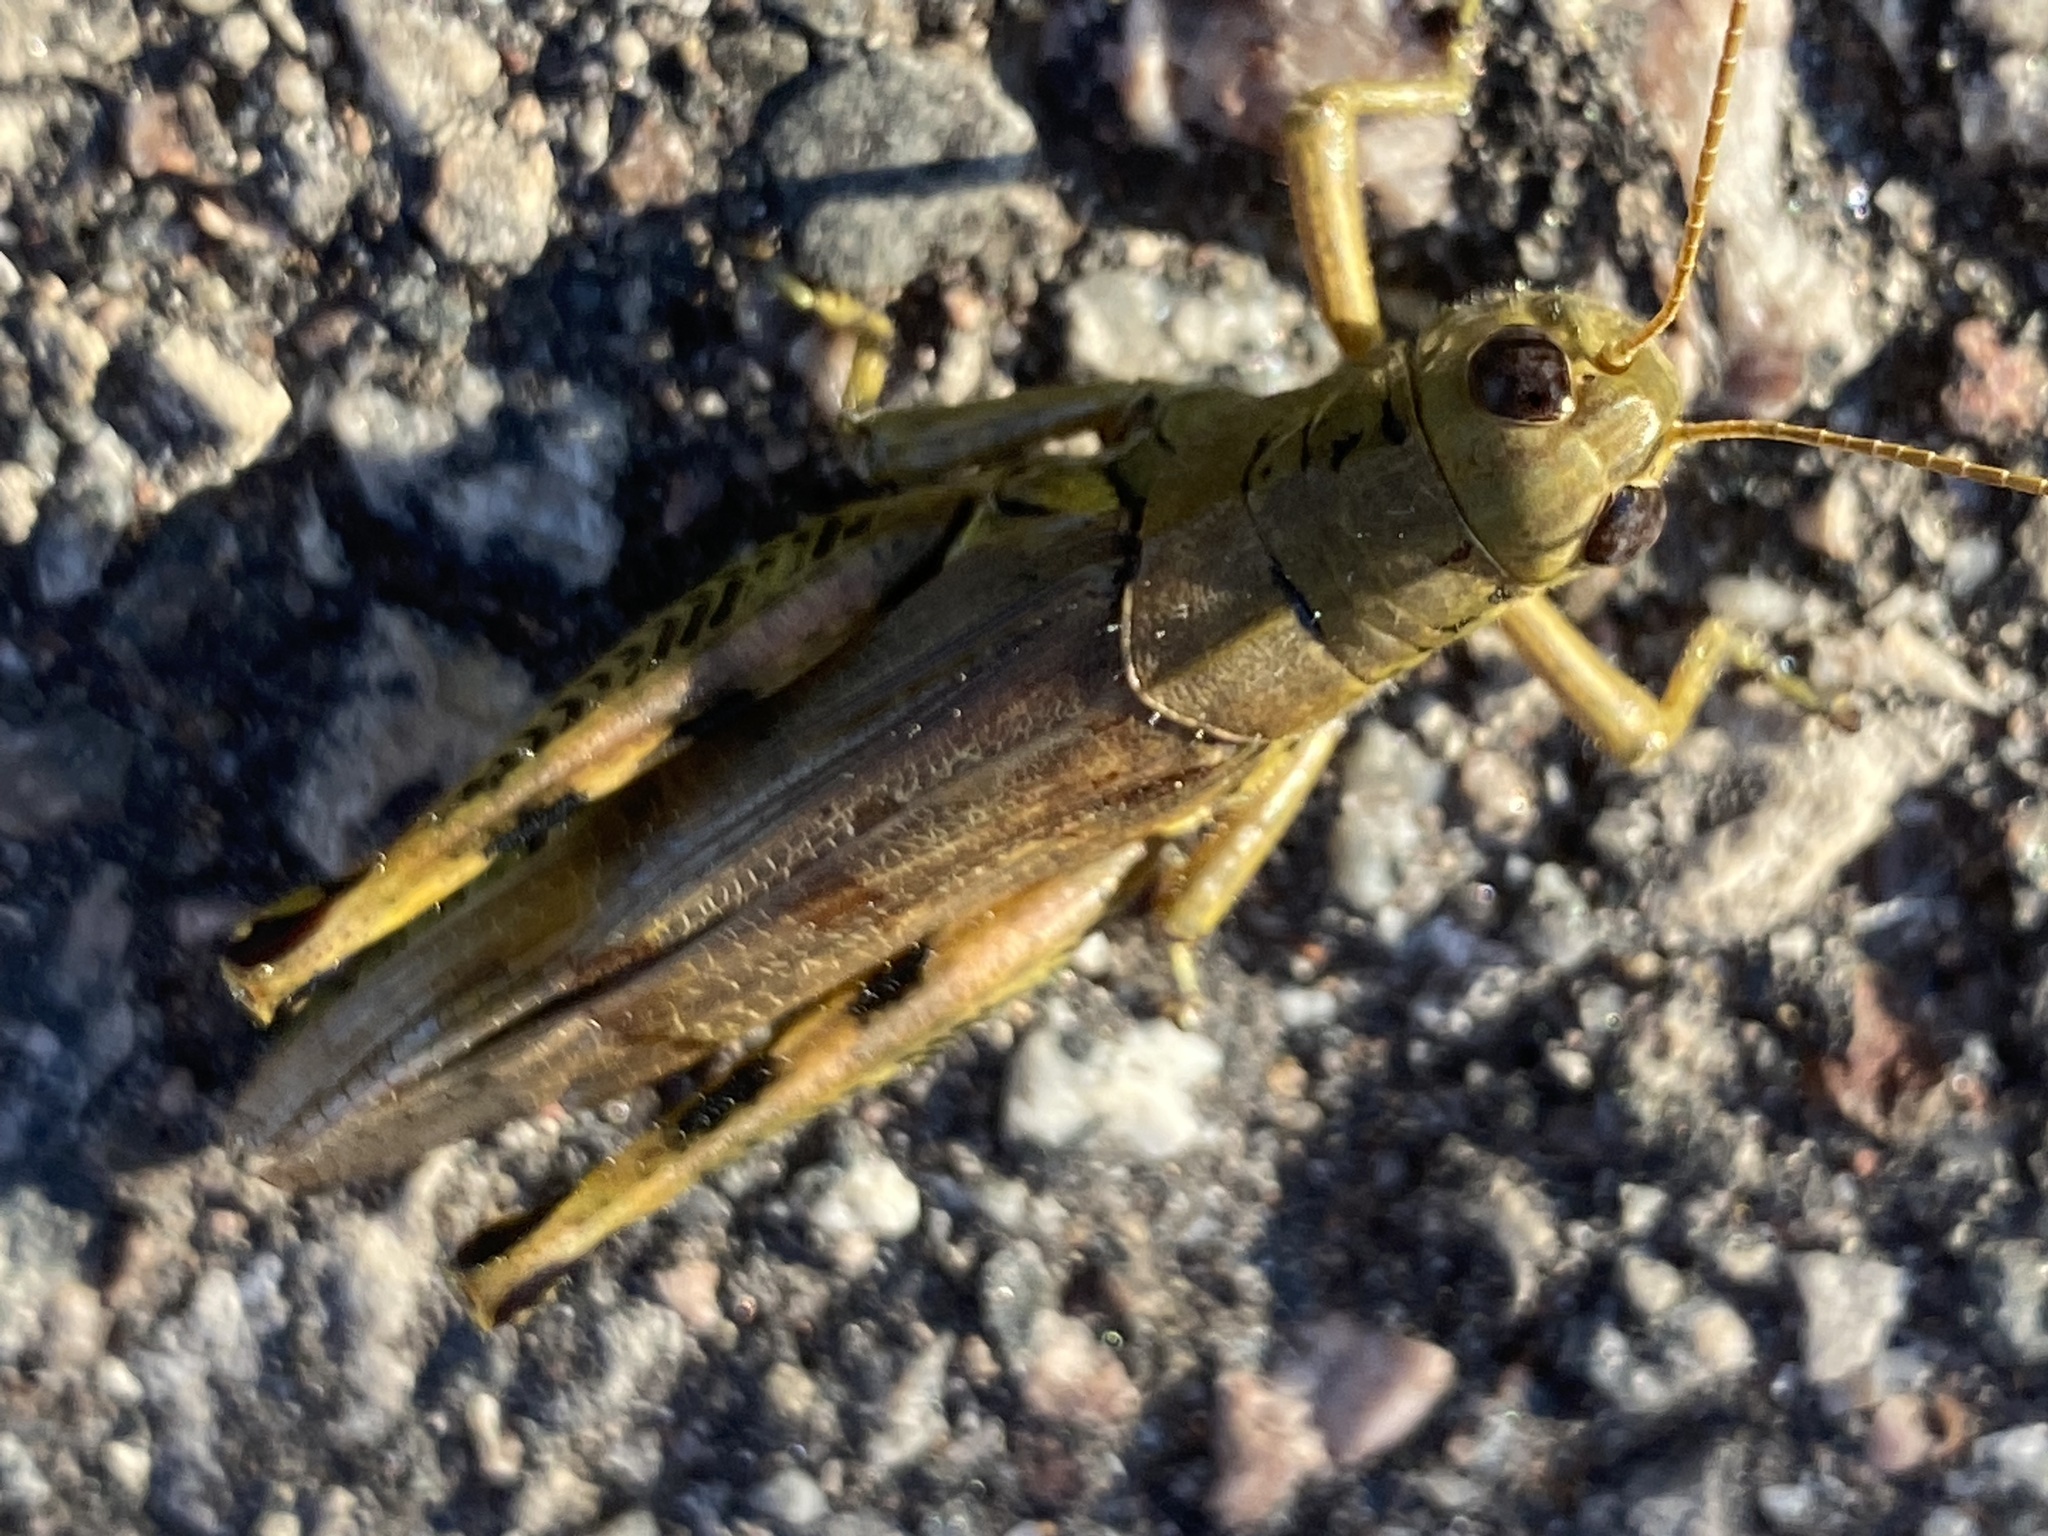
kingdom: Animalia
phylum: Arthropoda
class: Insecta
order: Orthoptera
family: Acrididae
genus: Melanoplus
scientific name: Melanoplus differentialis
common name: Differential grasshopper
